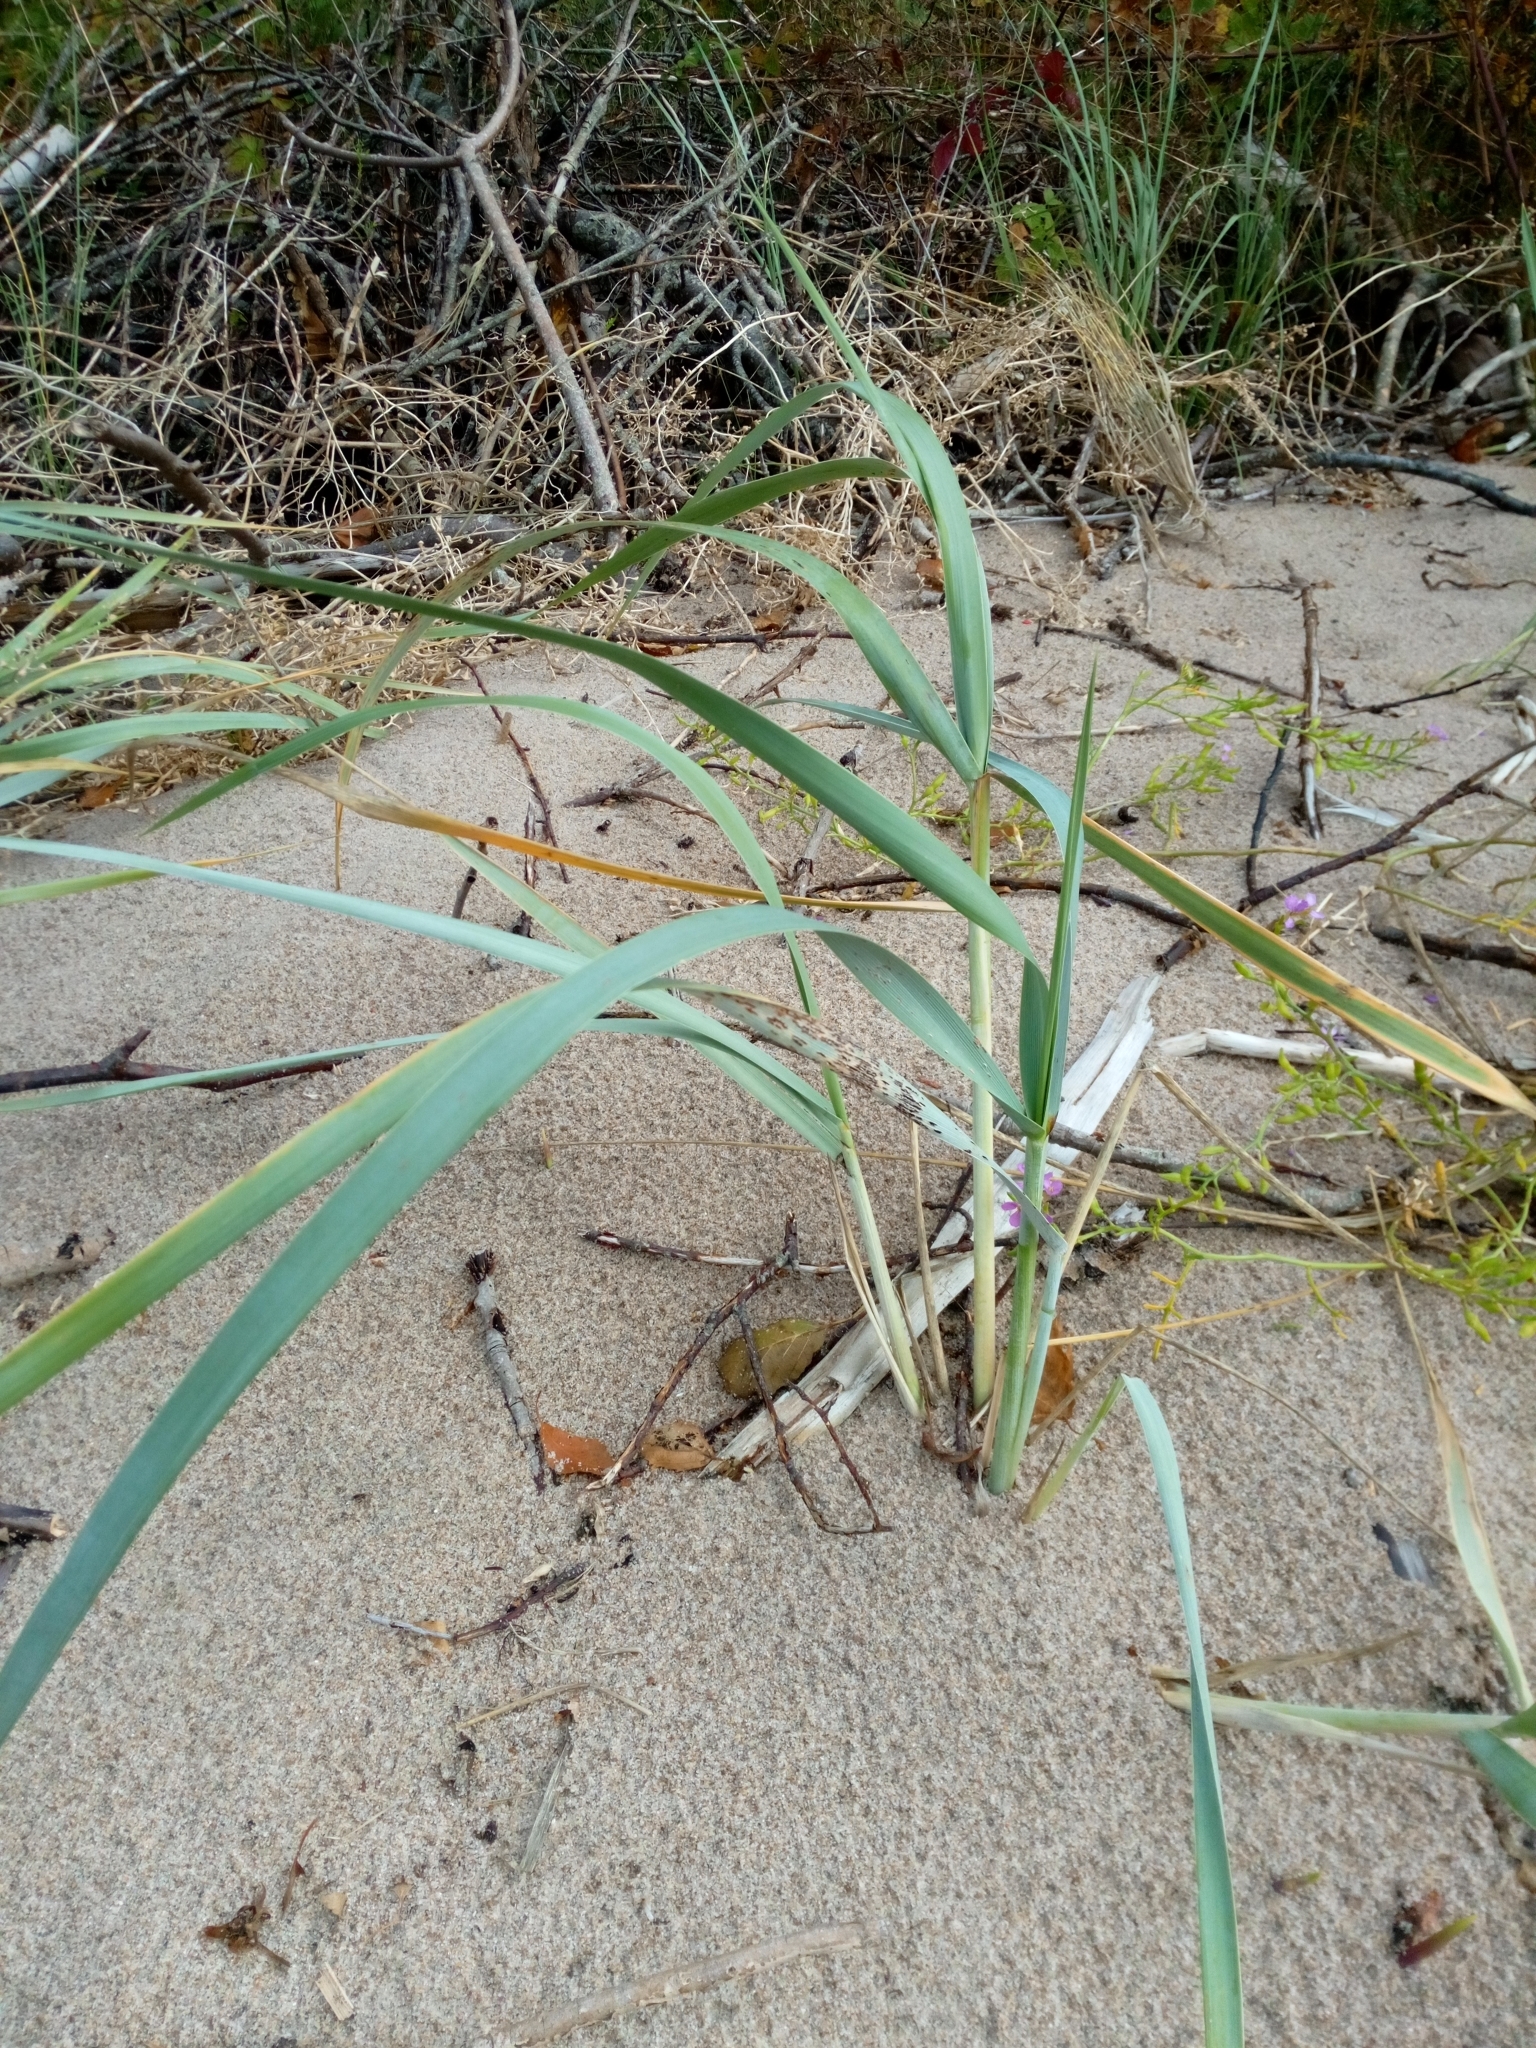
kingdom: Plantae
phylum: Tracheophyta
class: Liliopsida
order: Poales
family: Poaceae
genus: Leymus
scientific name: Leymus arenarius
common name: Lyme-grass
